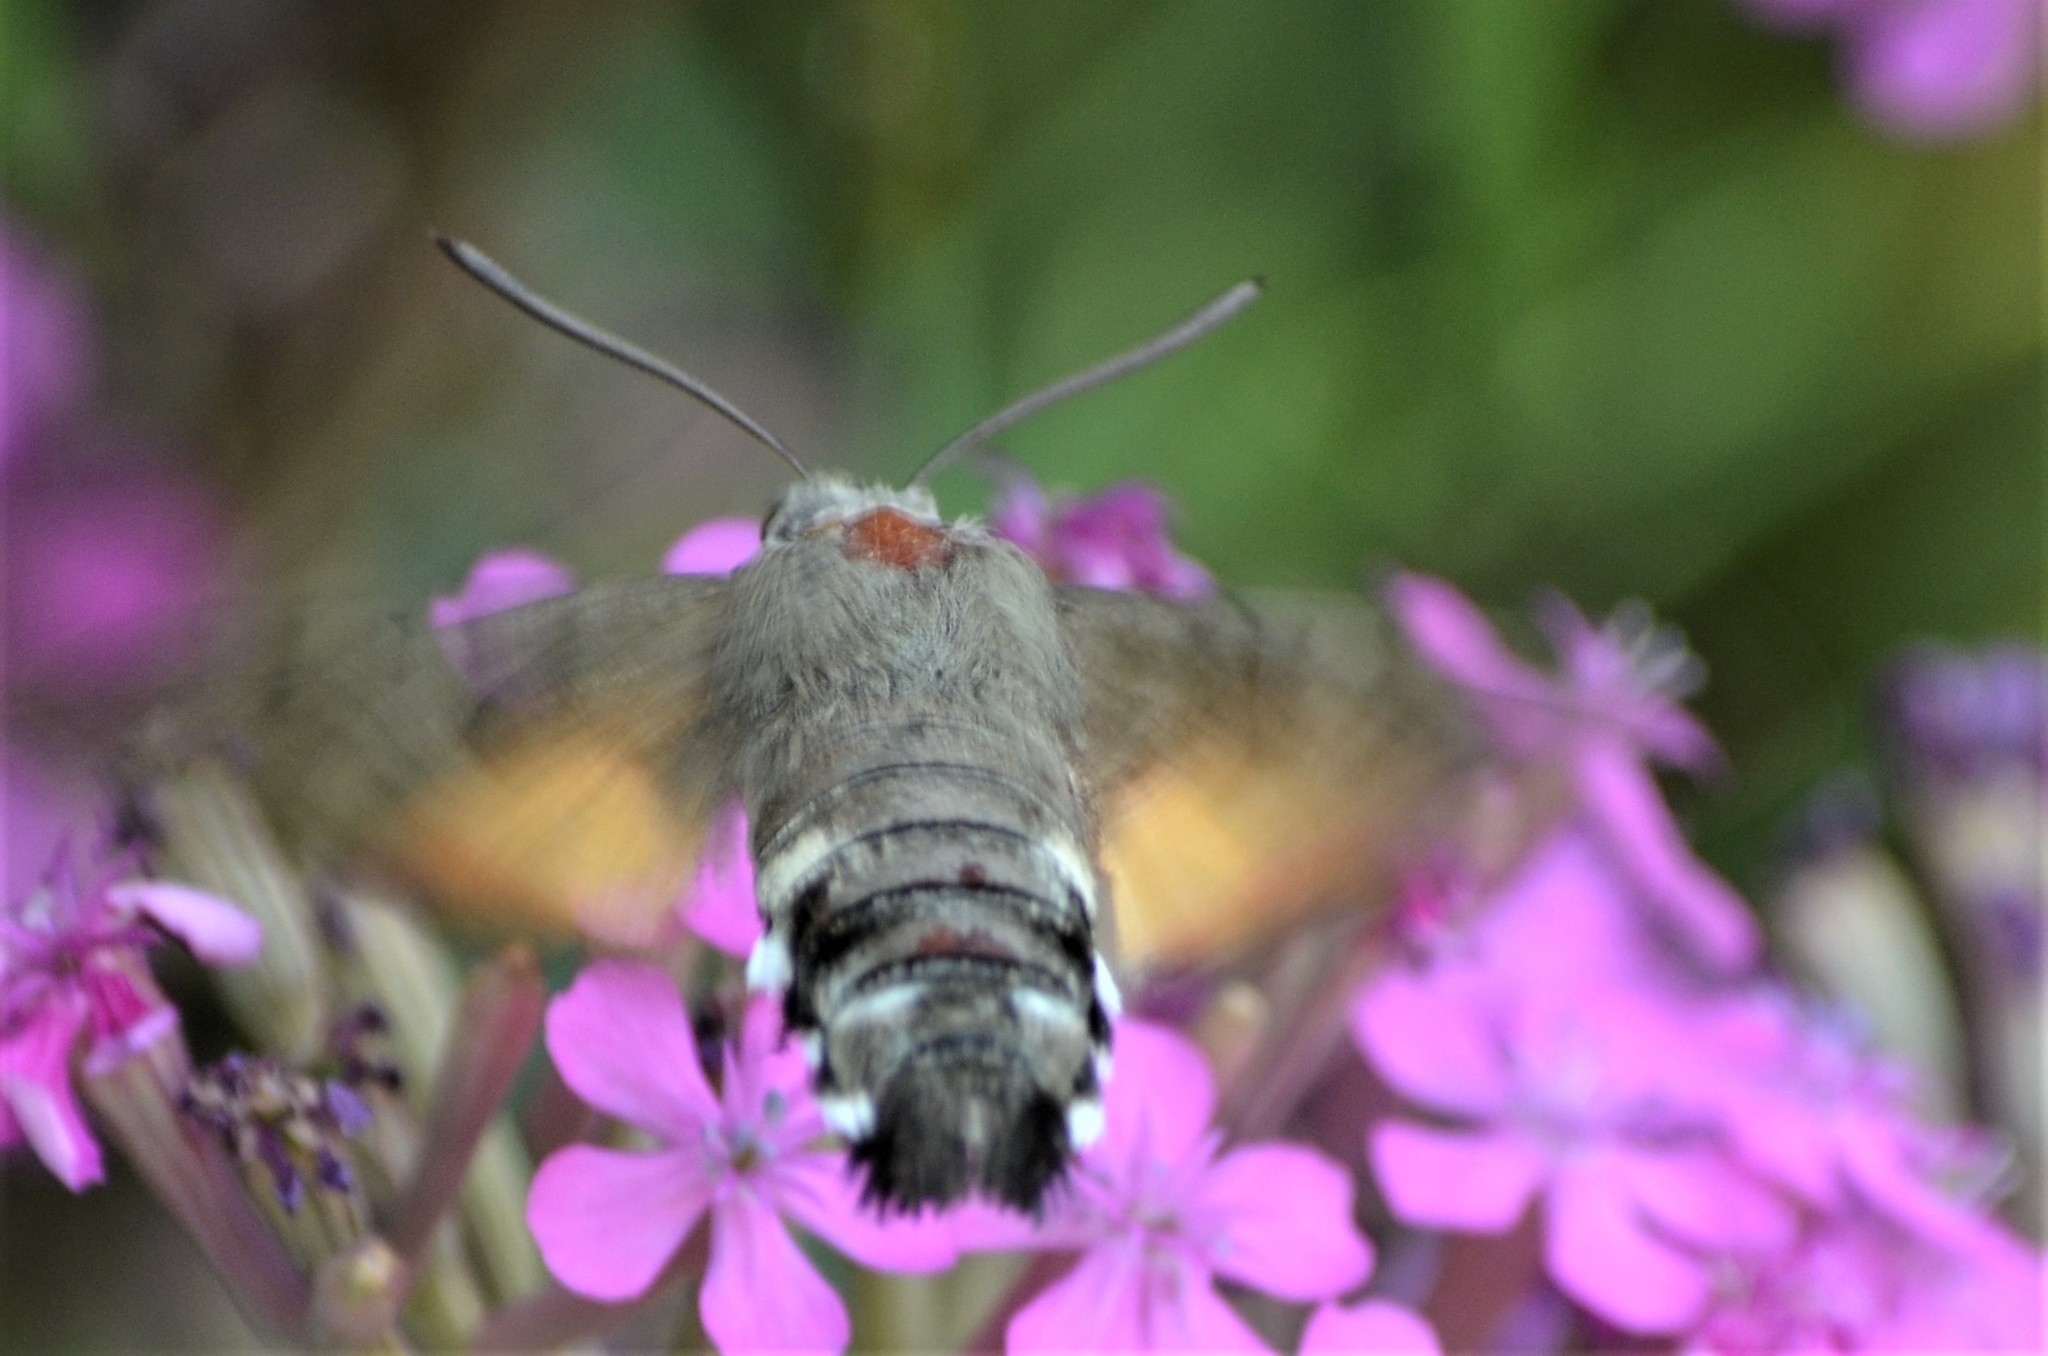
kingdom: Animalia
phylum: Arthropoda
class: Insecta
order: Lepidoptera
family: Sphingidae
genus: Macroglossum
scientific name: Macroglossum stellatarum
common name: Humming-bird hawk-moth
